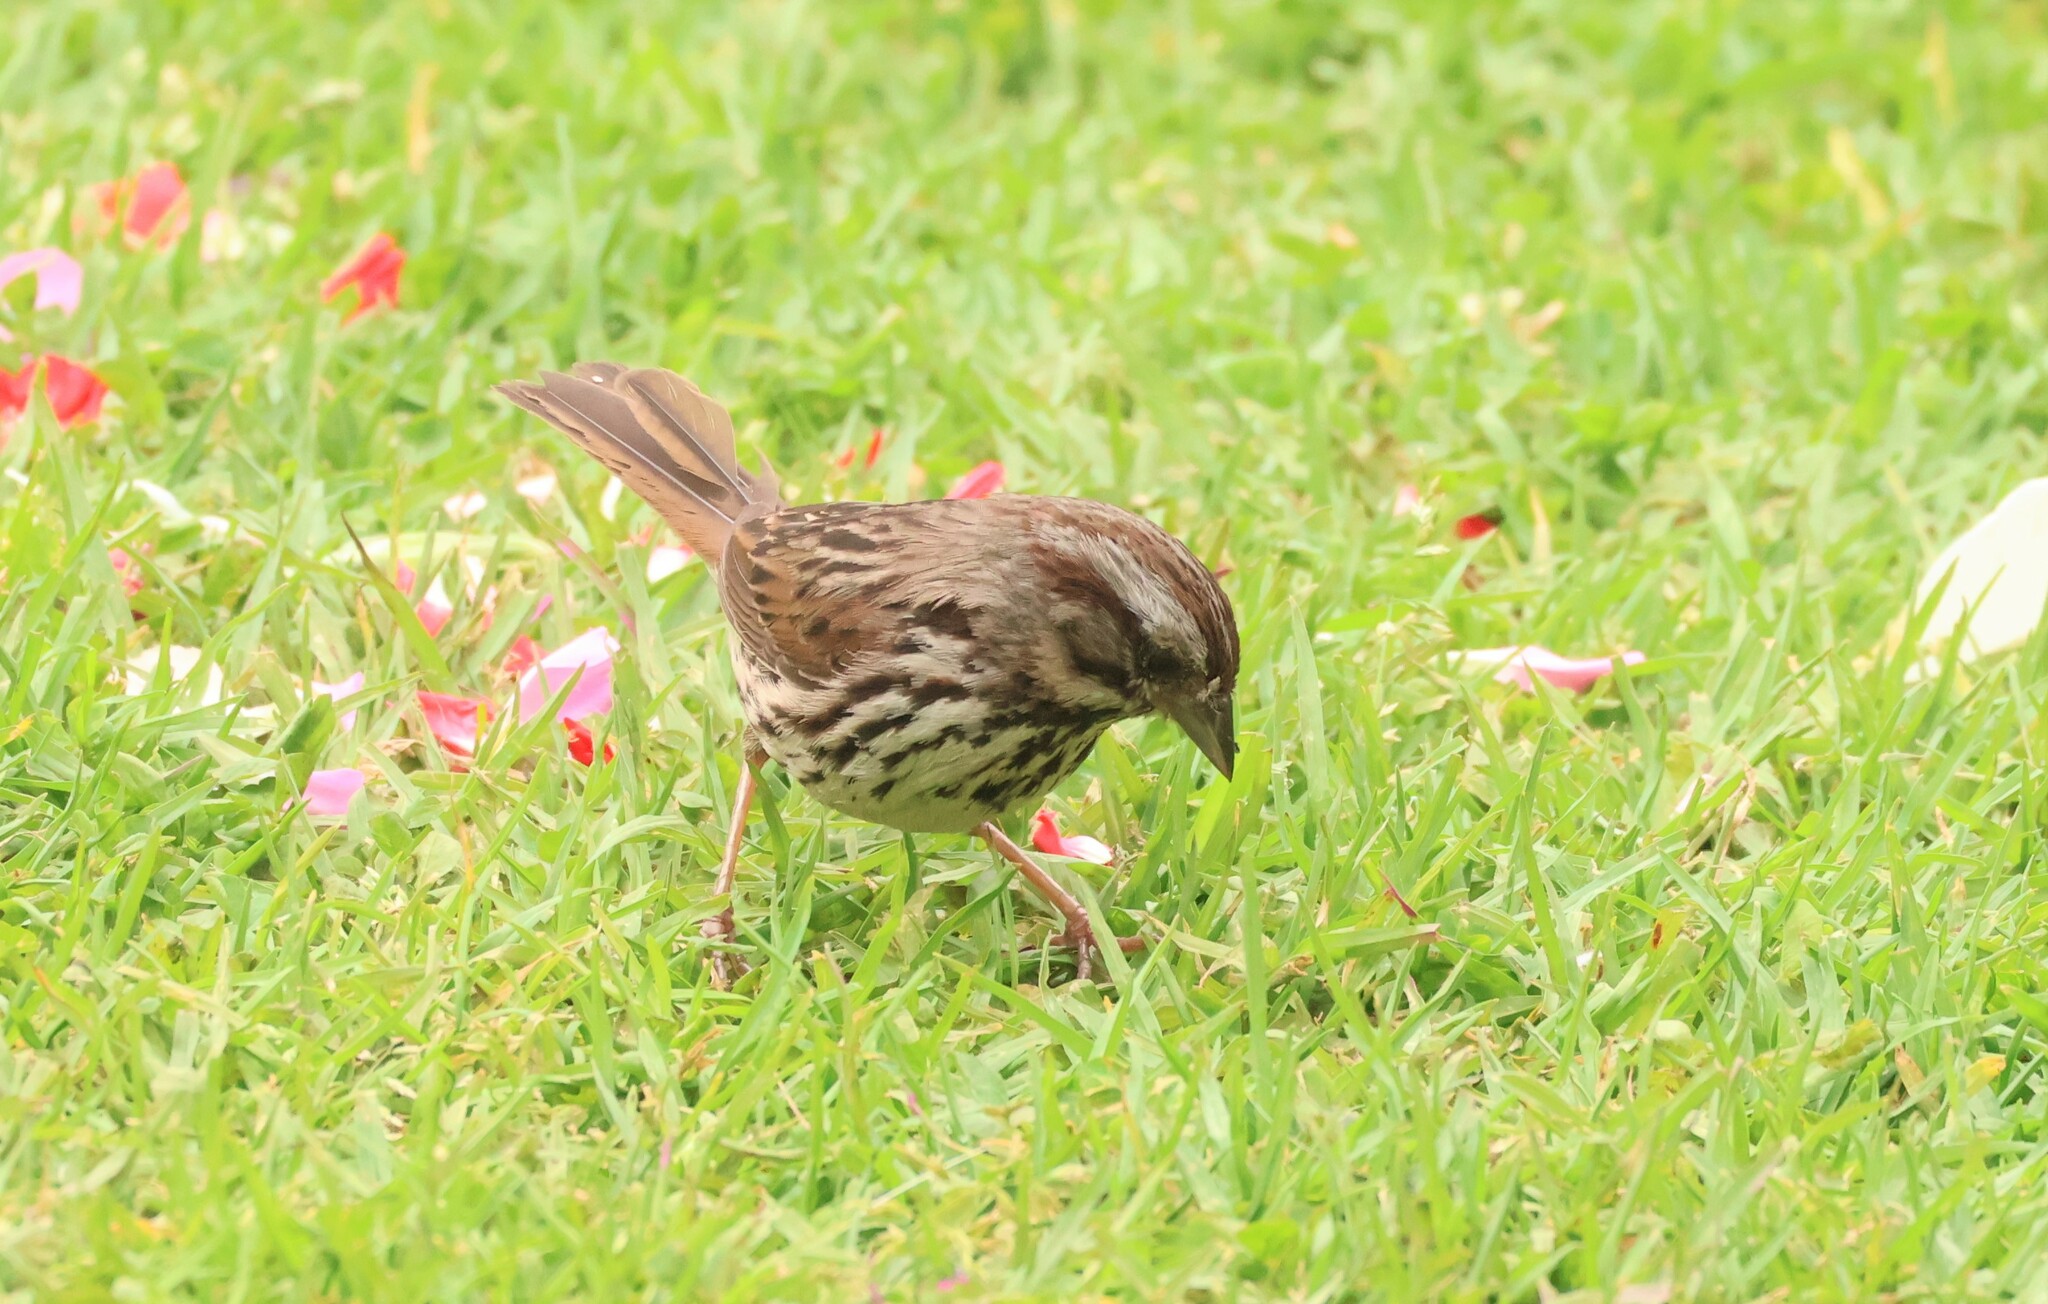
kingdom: Animalia
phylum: Chordata
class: Aves
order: Passeriformes
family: Passerellidae
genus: Melospiza
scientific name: Melospiza melodia
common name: Song sparrow
